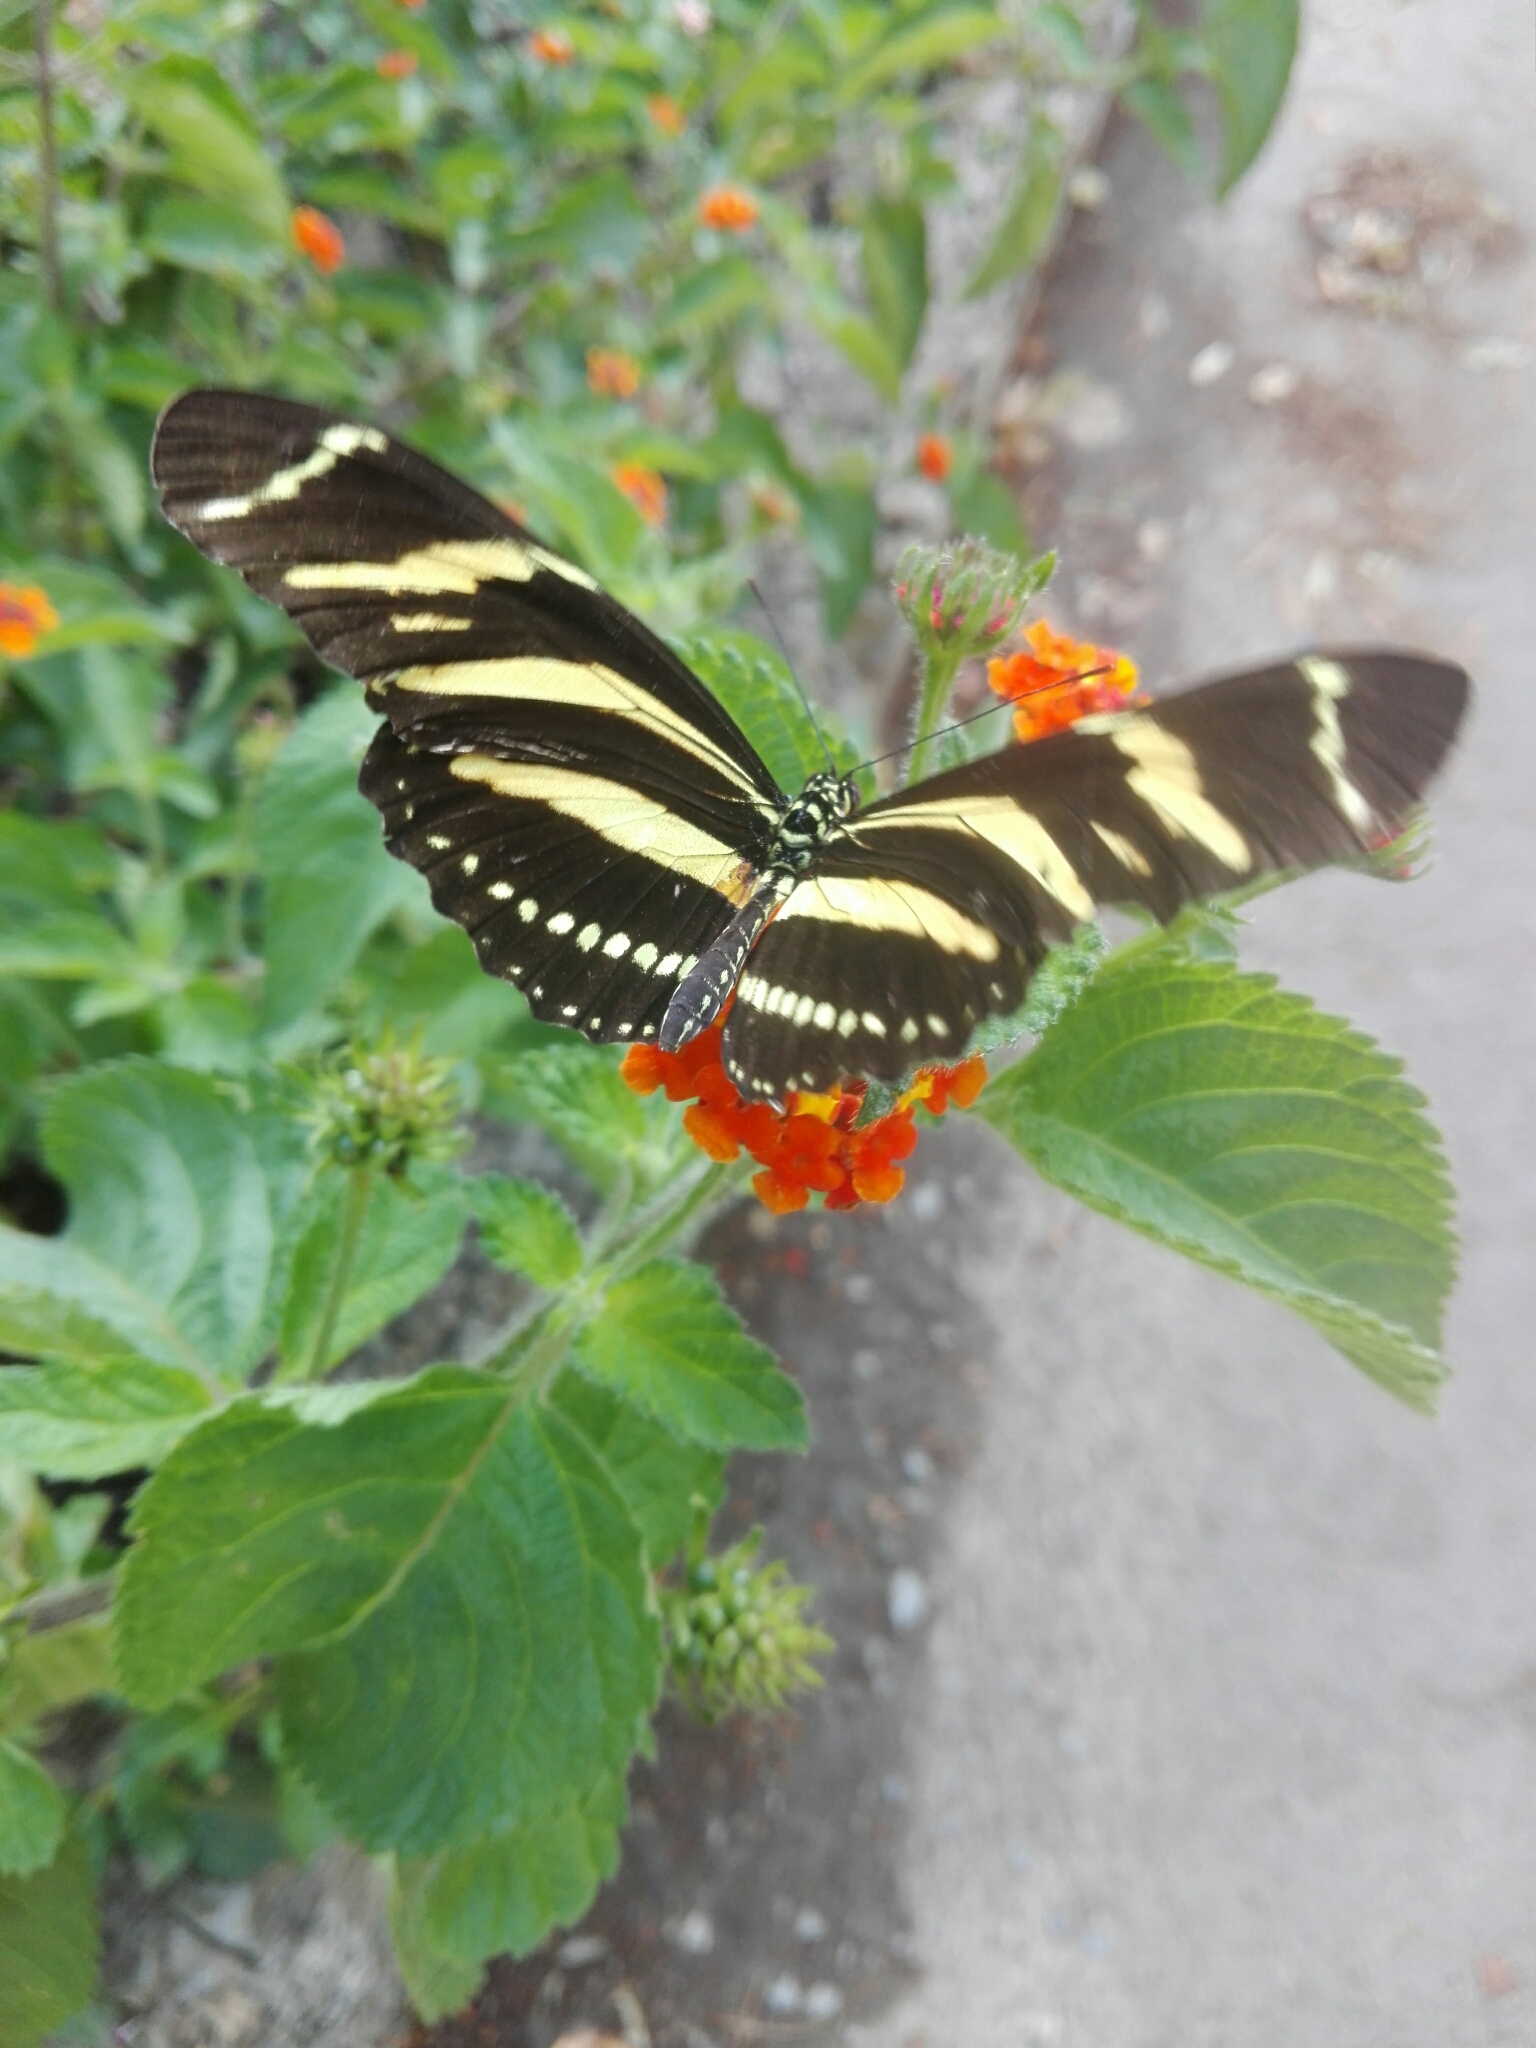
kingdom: Animalia
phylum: Arthropoda
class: Insecta
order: Lepidoptera
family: Nymphalidae
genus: Heliconius
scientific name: Heliconius charithonia
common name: Zebra long wing
